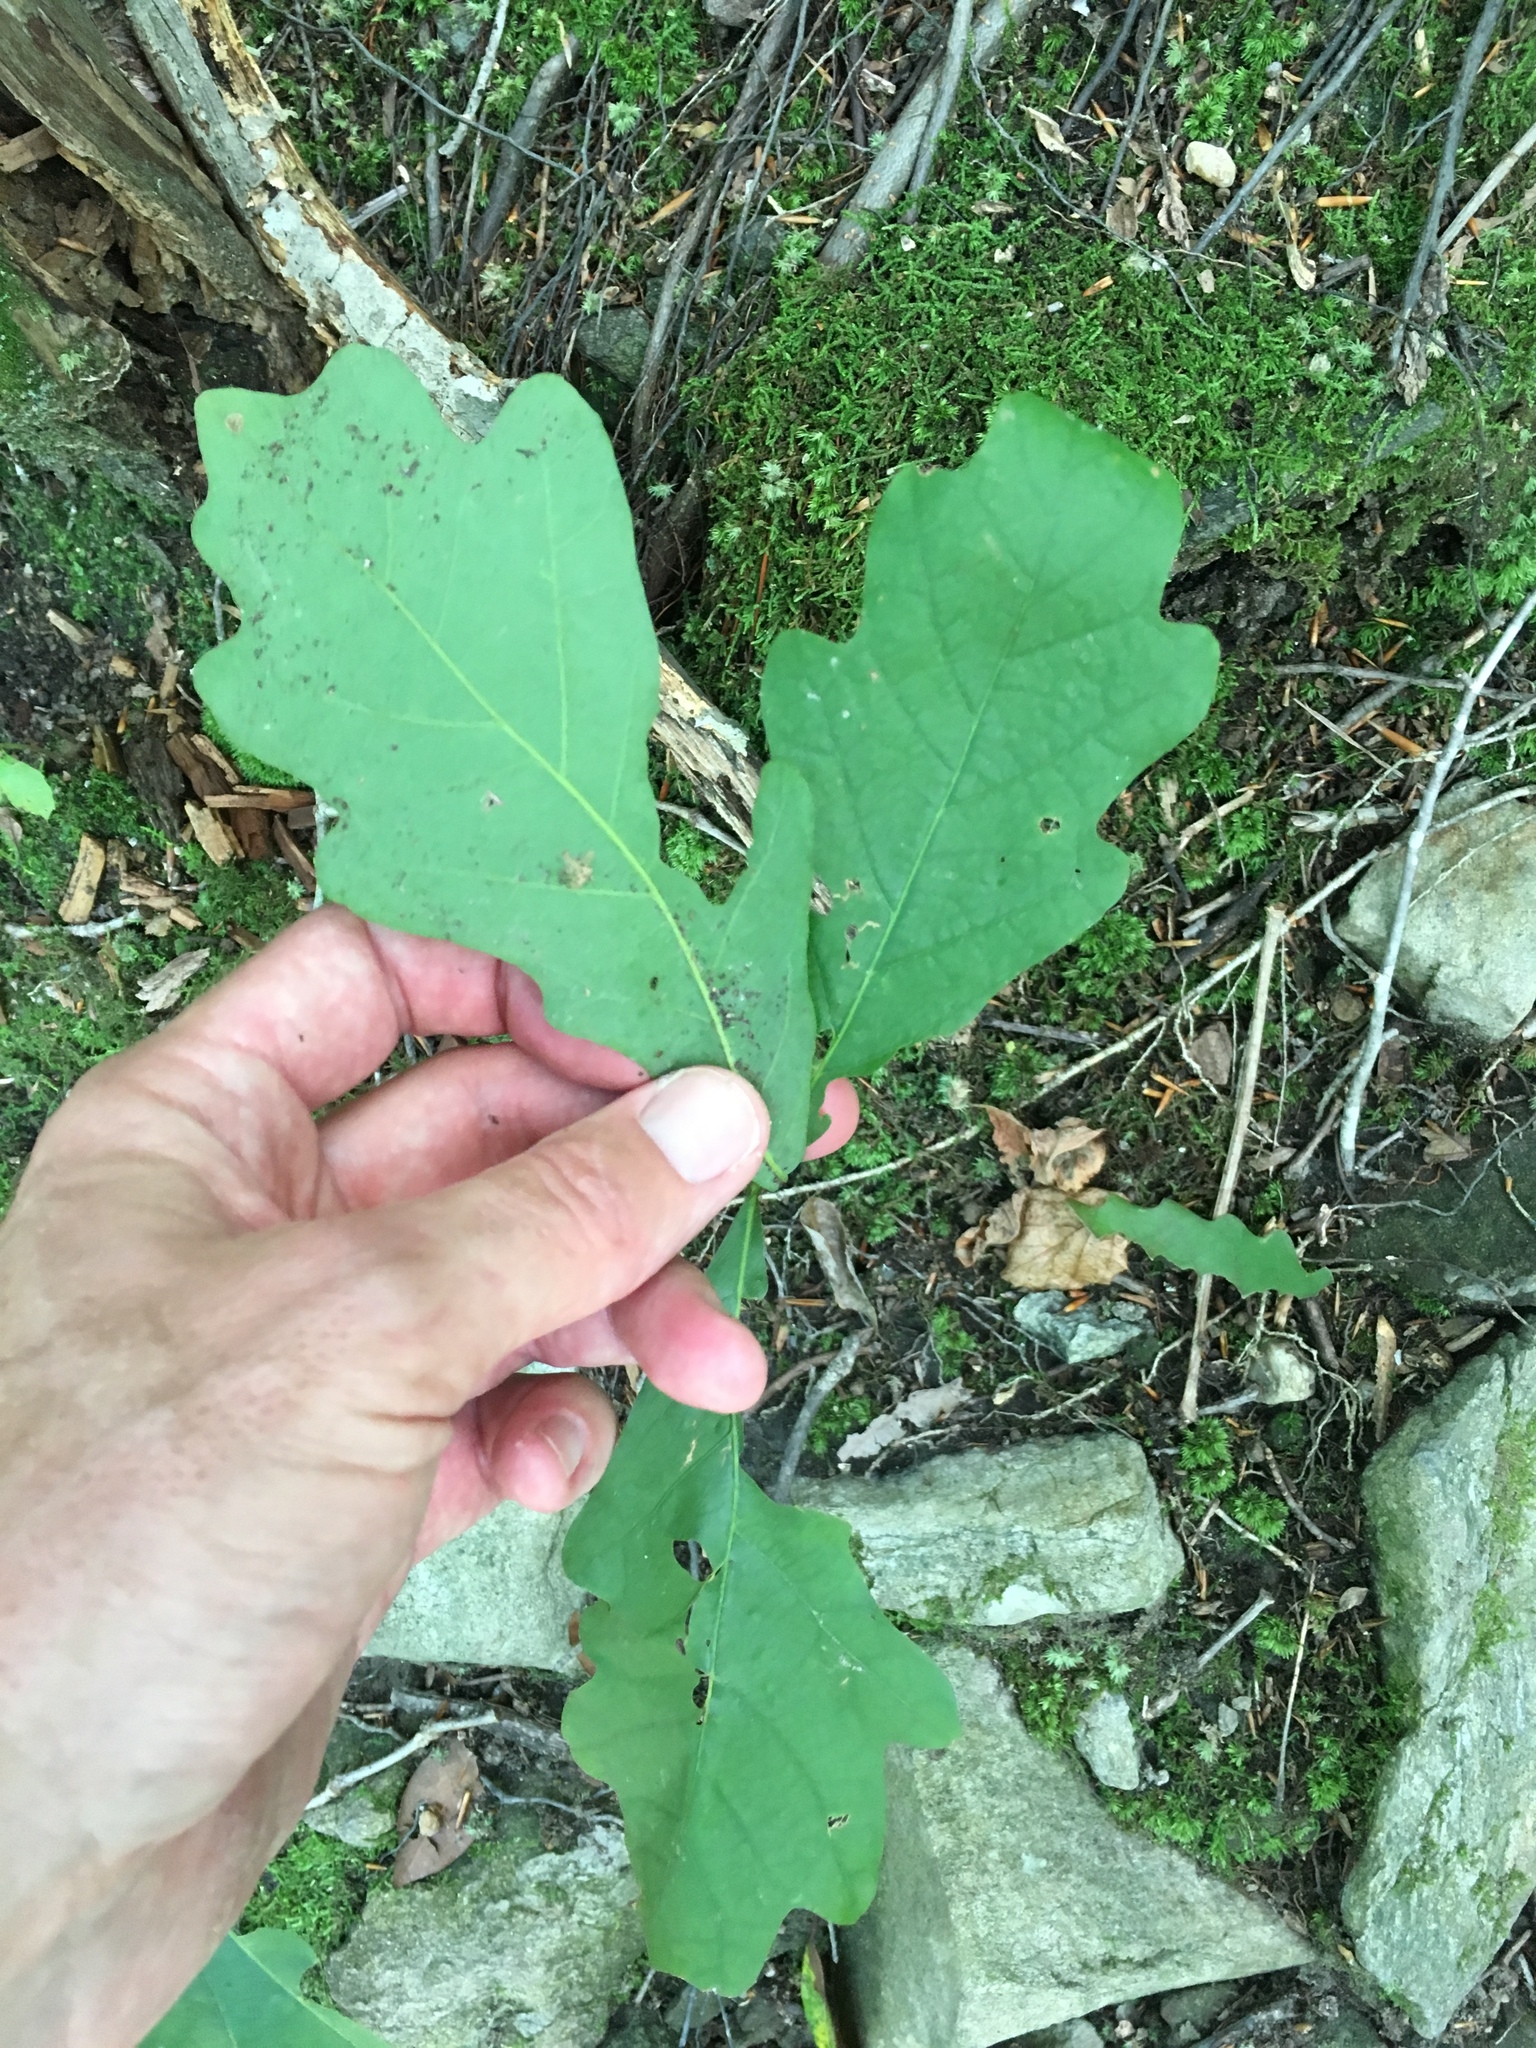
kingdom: Plantae
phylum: Tracheophyta
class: Magnoliopsida
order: Fagales
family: Fagaceae
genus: Quercus
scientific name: Quercus alba
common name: White oak
